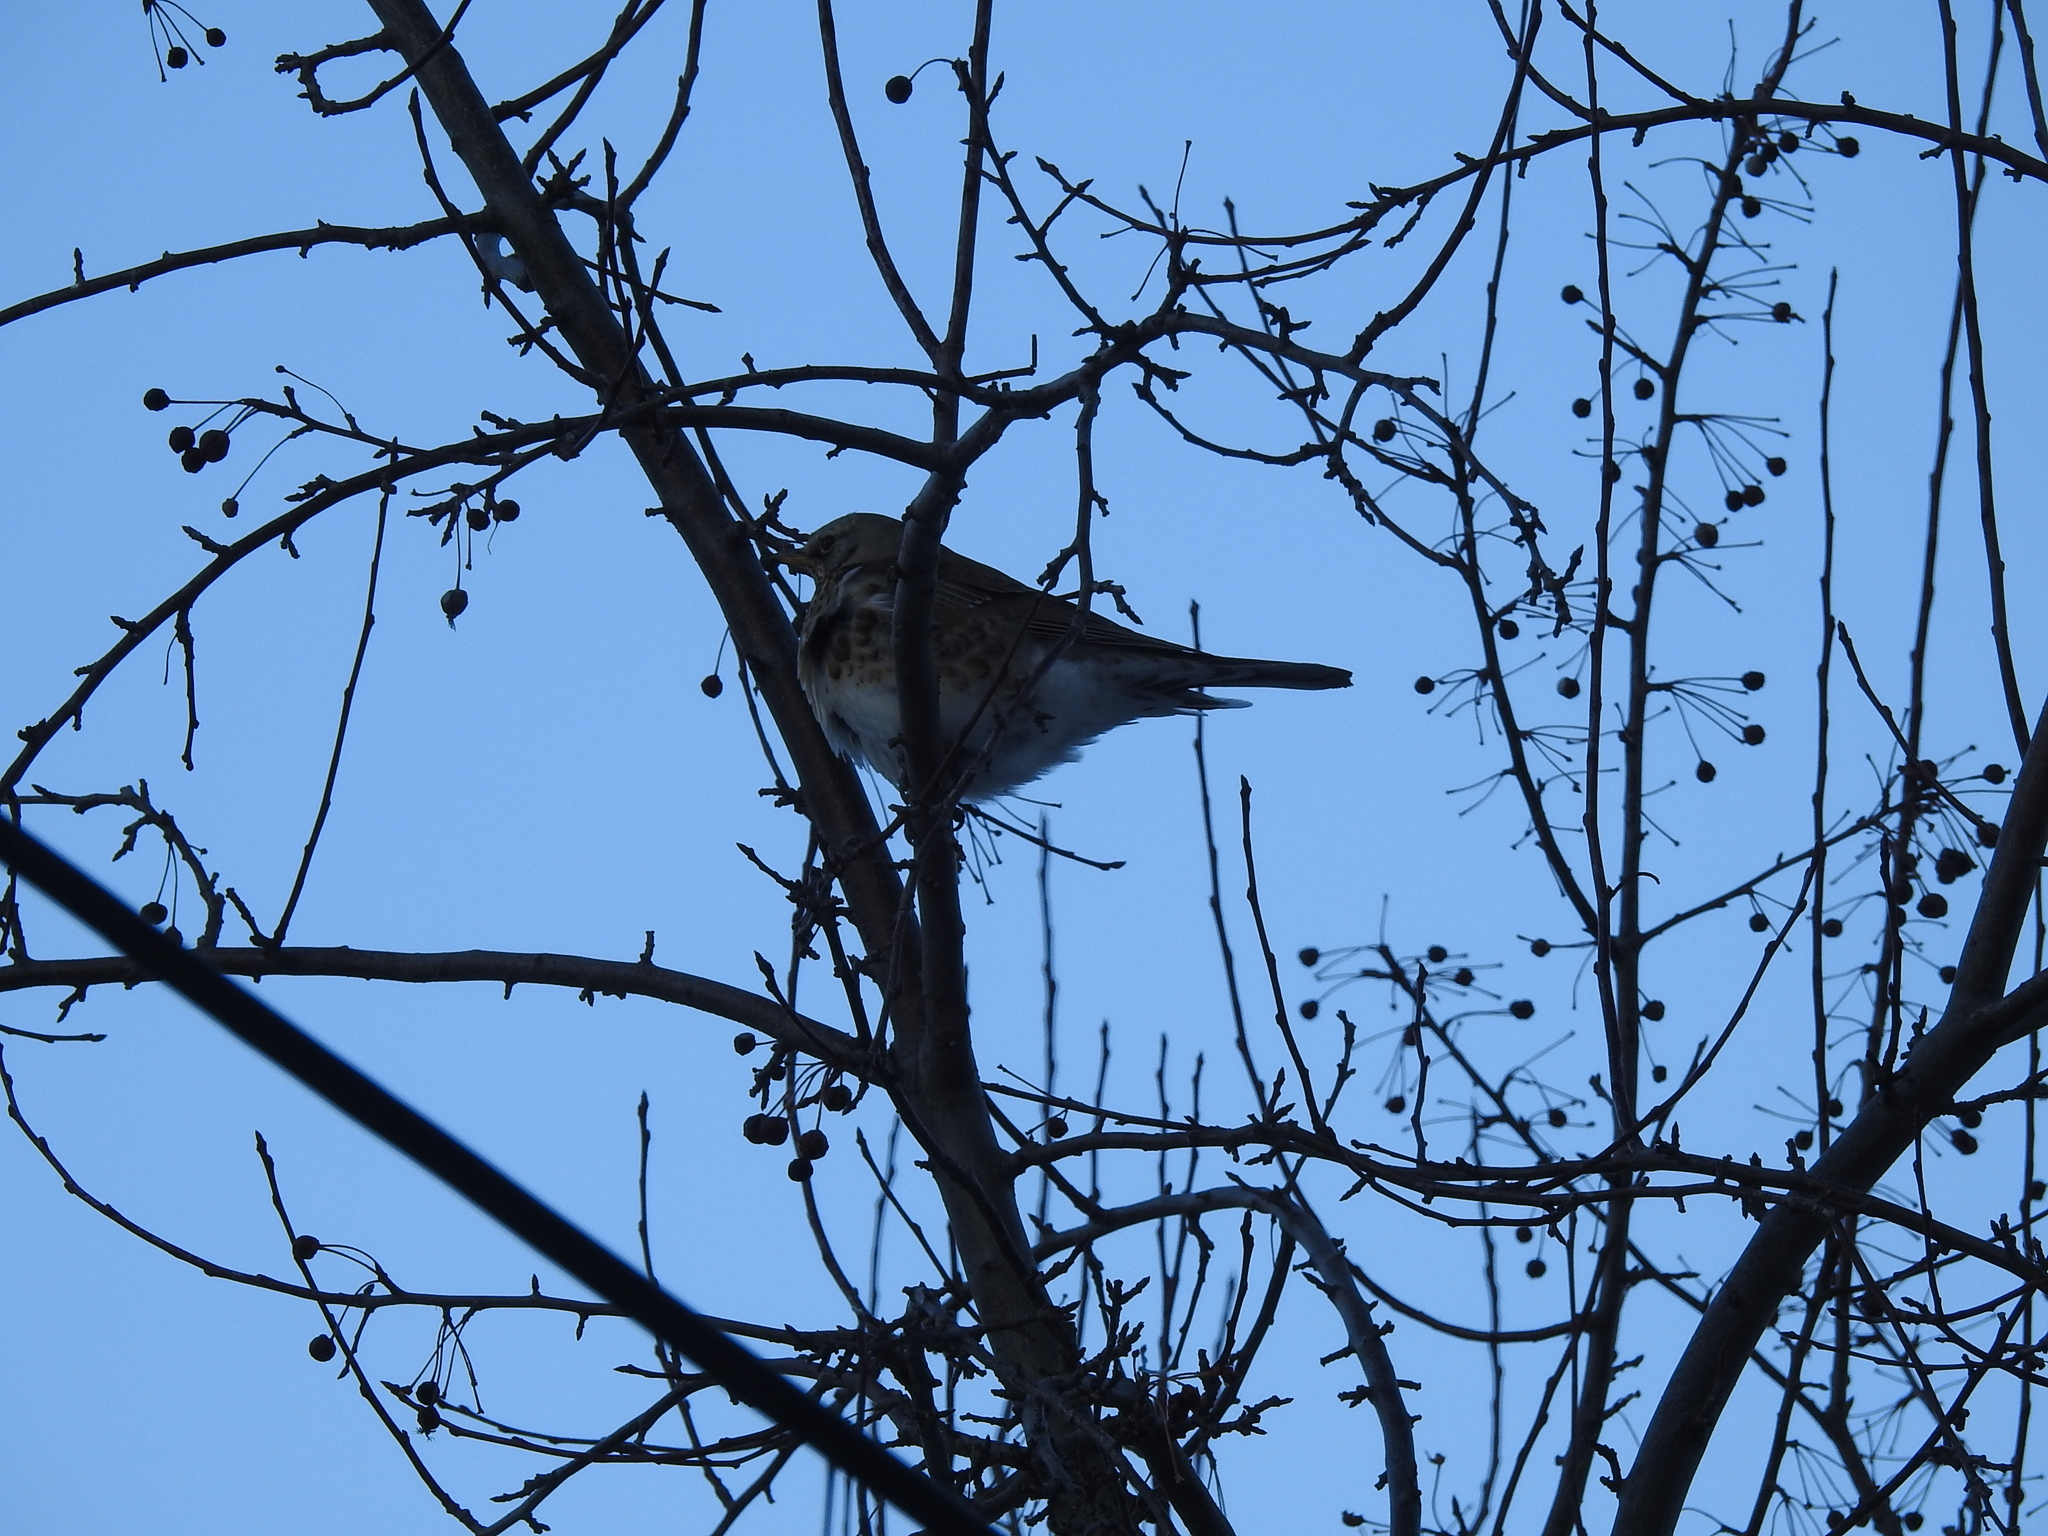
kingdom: Animalia
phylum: Chordata
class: Aves
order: Passeriformes
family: Turdidae
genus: Turdus
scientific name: Turdus pilaris
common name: Fieldfare
